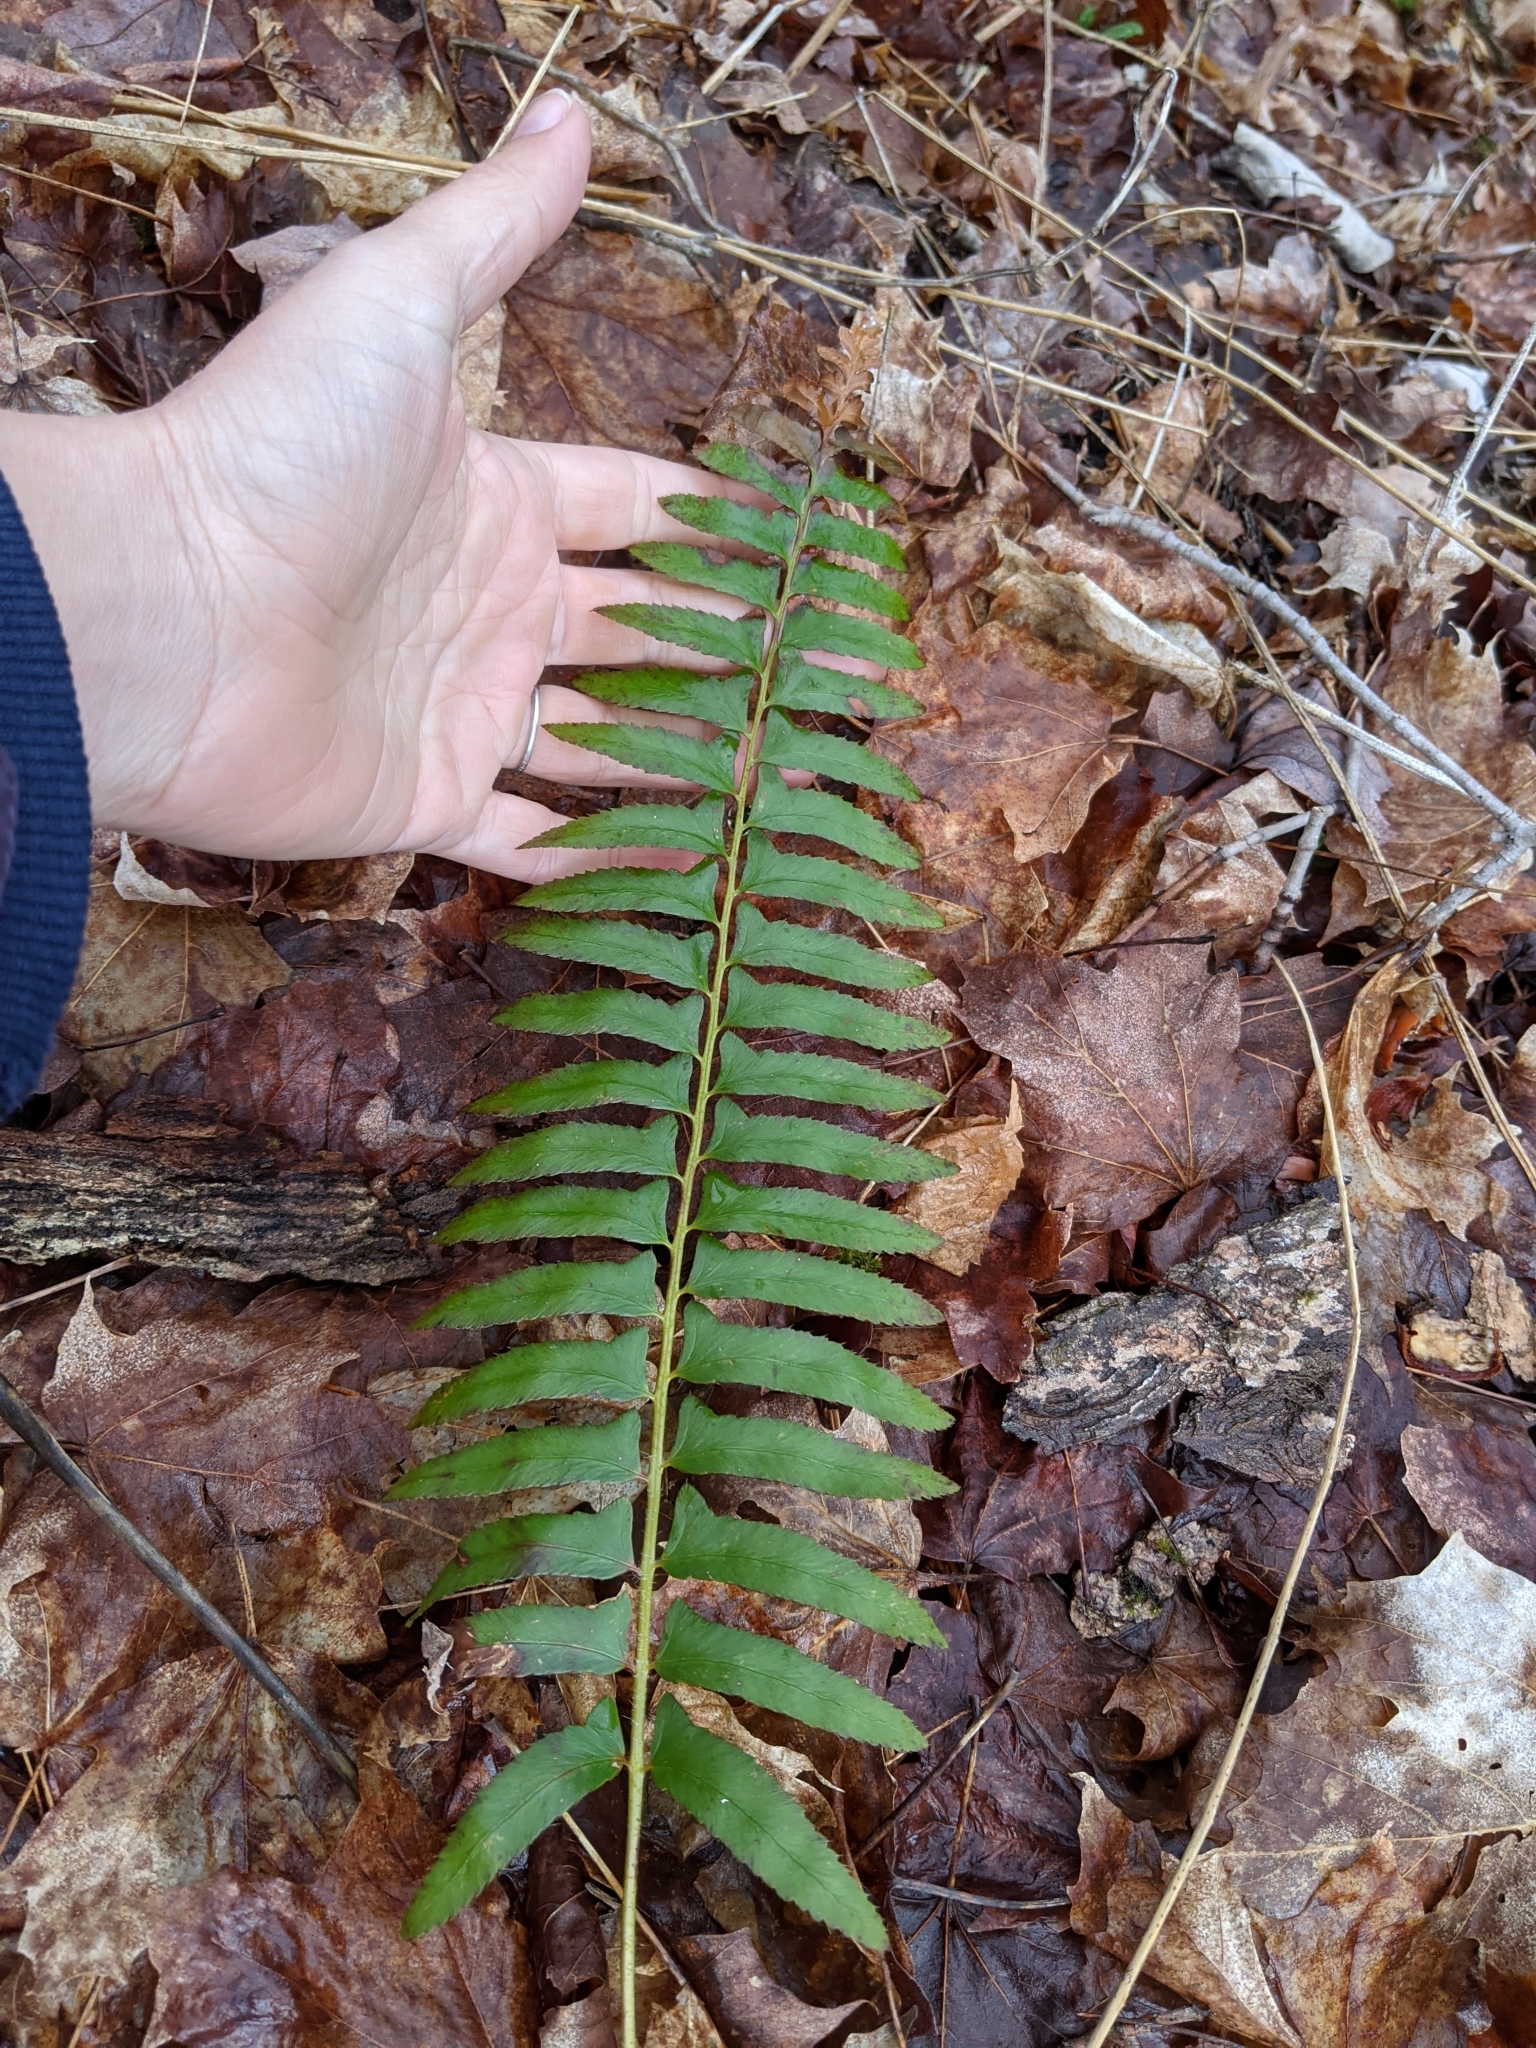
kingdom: Plantae
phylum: Tracheophyta
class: Polypodiopsida
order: Polypodiales
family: Dryopteridaceae
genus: Polystichum
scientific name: Polystichum acrostichoides
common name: Christmas fern
